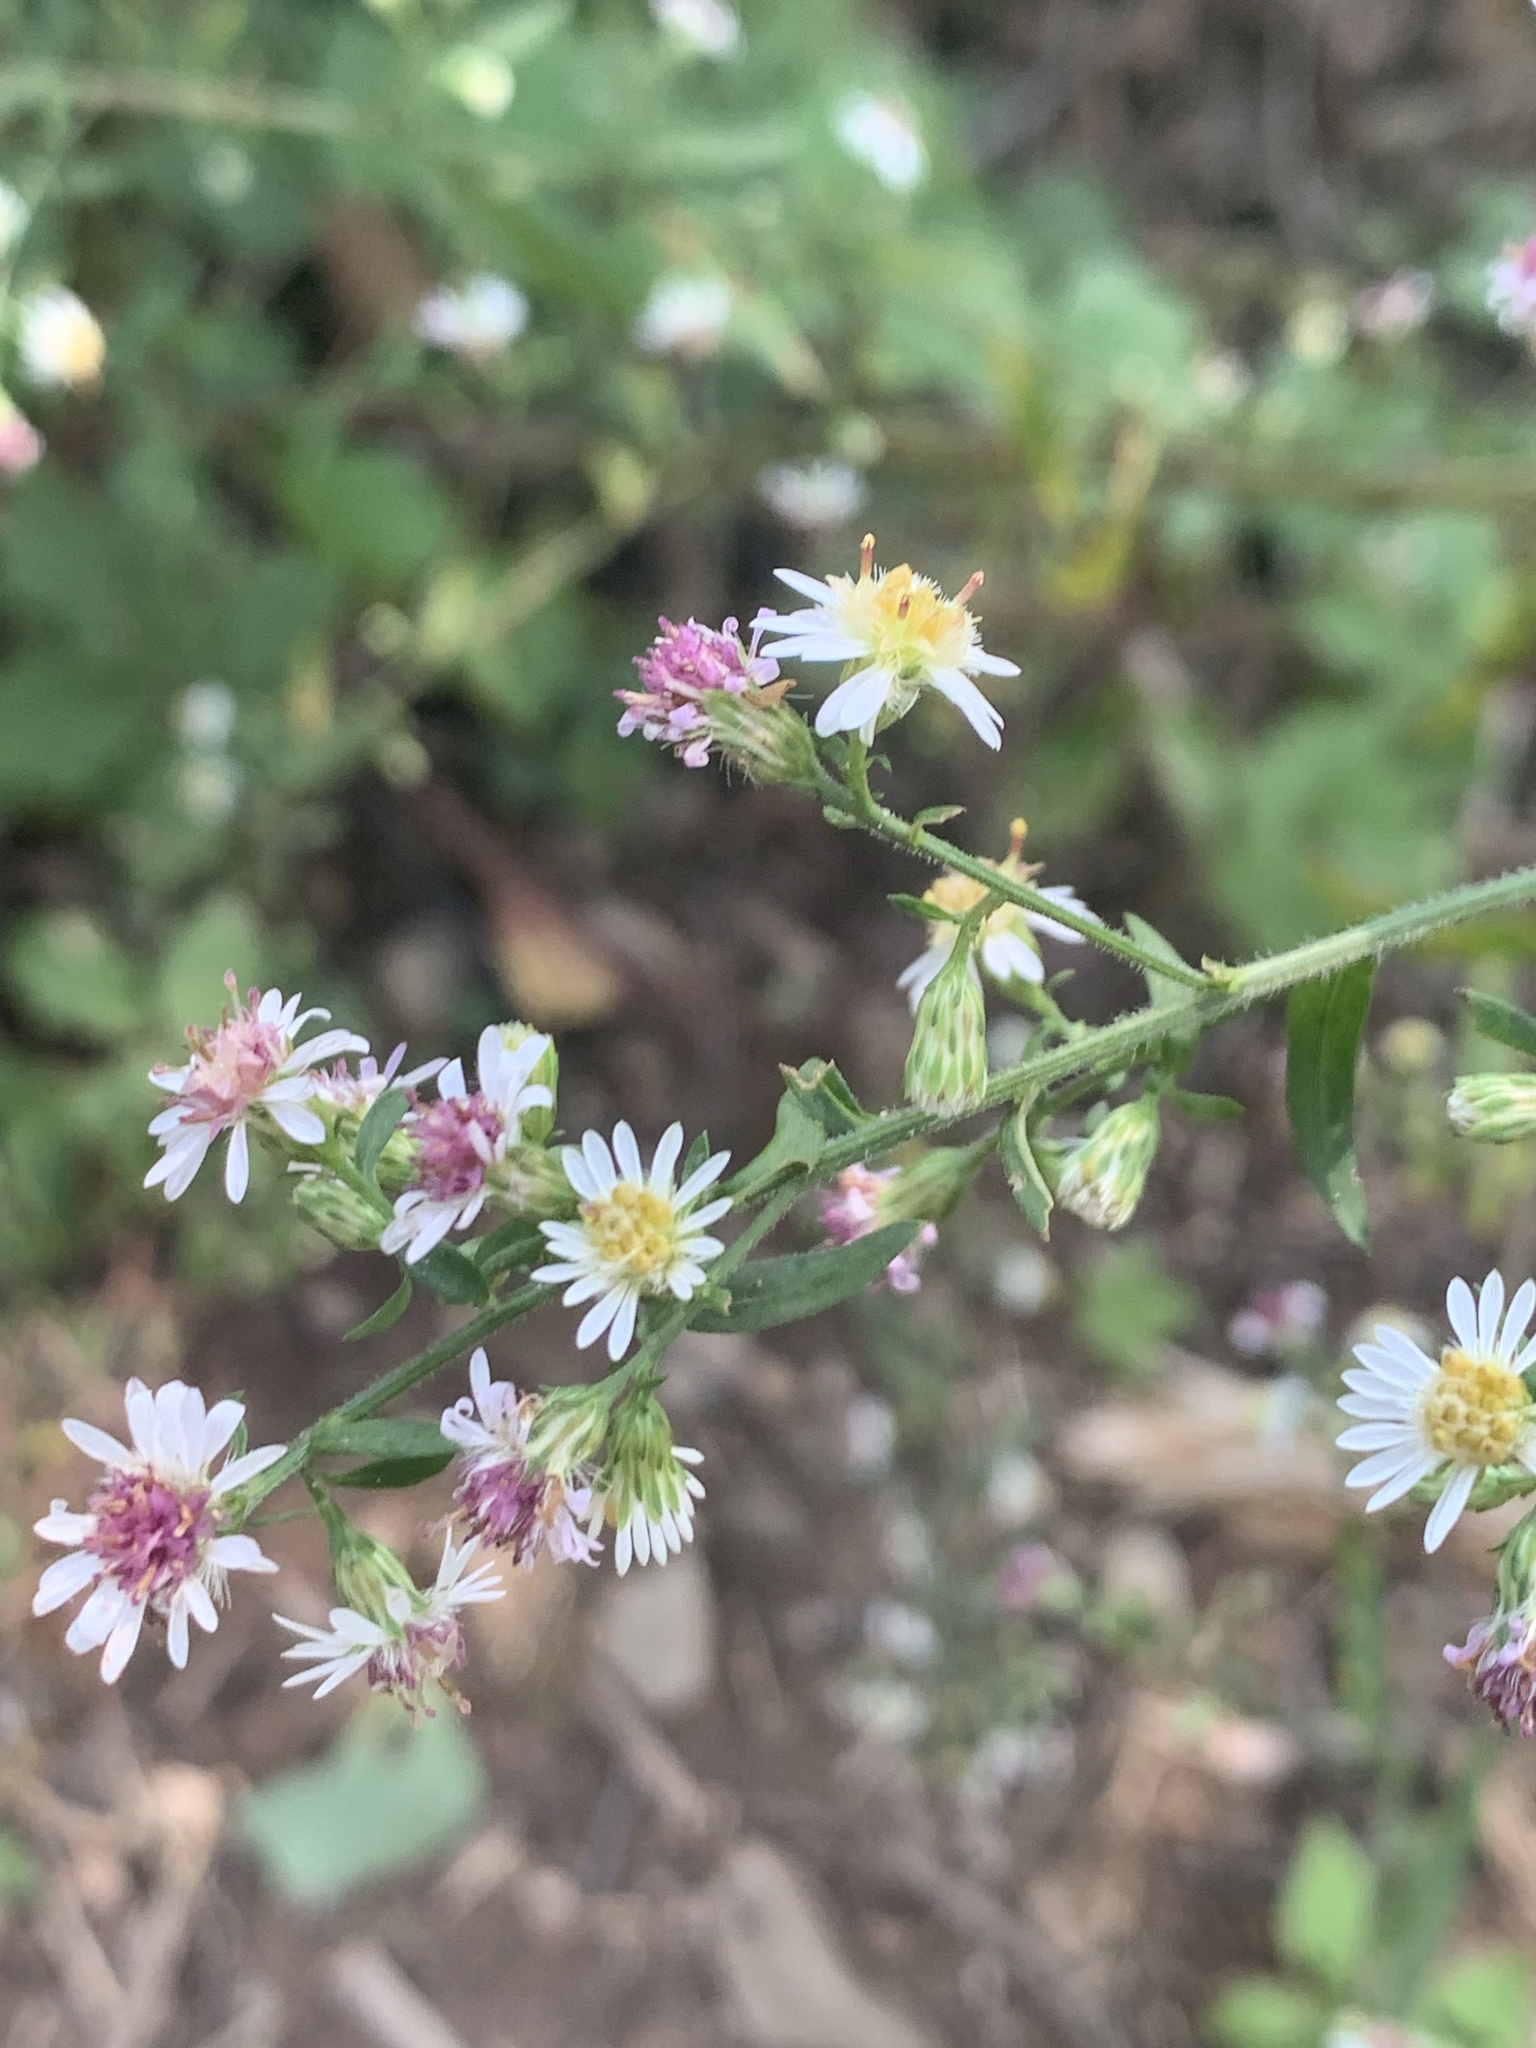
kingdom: Plantae
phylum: Tracheophyta
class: Magnoliopsida
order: Asterales
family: Asteraceae
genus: Symphyotrichum
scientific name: Symphyotrichum lateriflorum
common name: Calico aster
